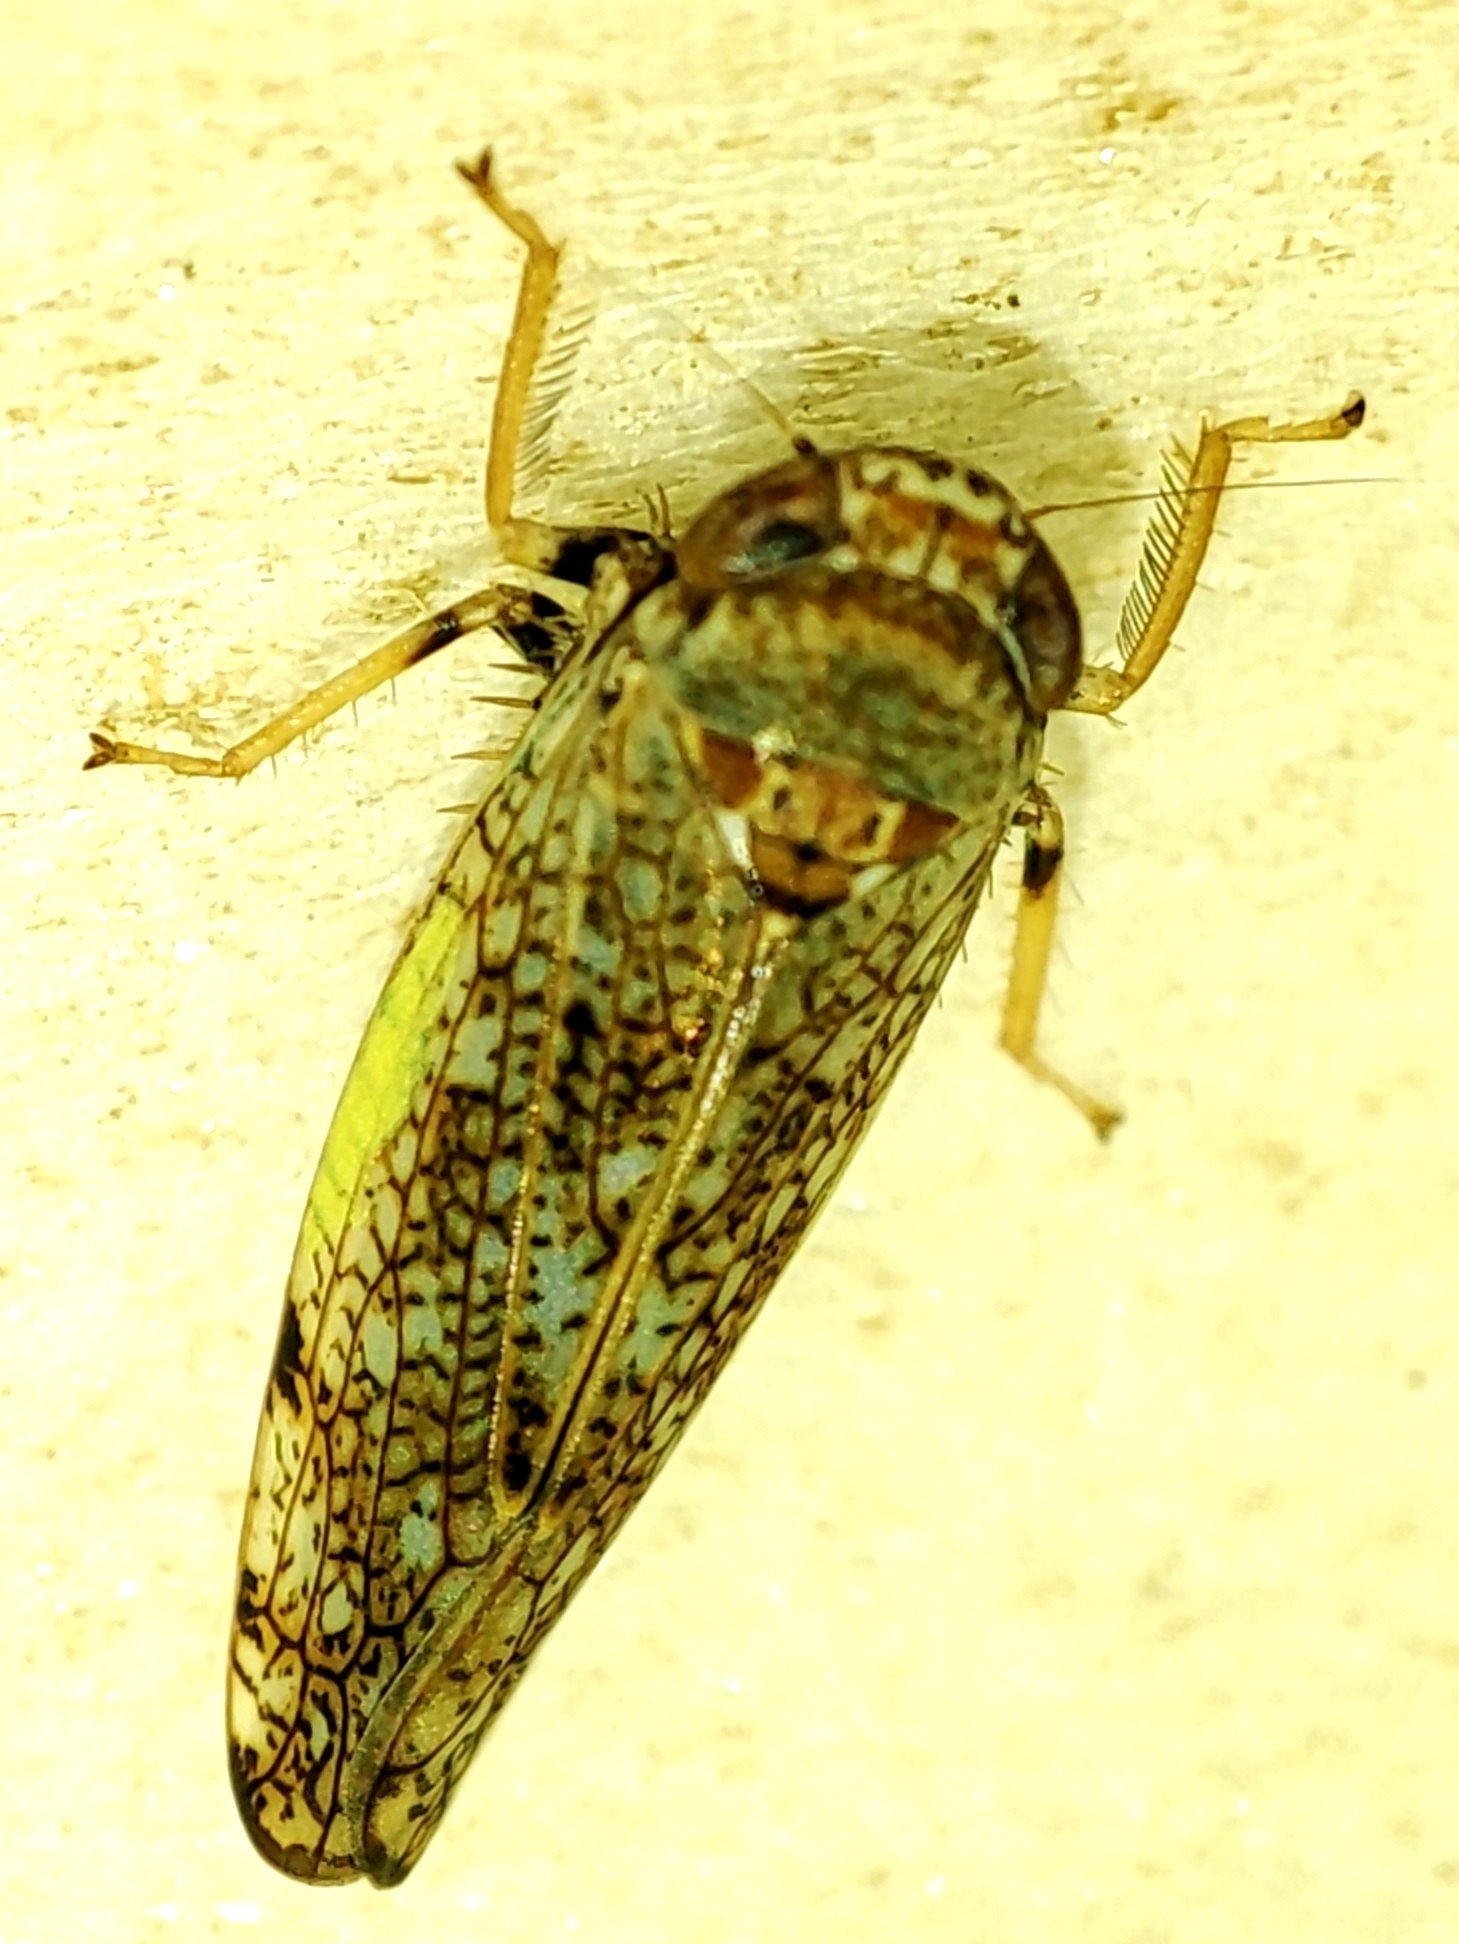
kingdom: Animalia
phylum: Arthropoda
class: Insecta
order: Hemiptera
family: Cicadellidae
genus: Orientus
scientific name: Orientus ishidae
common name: Japanese leafhopper
